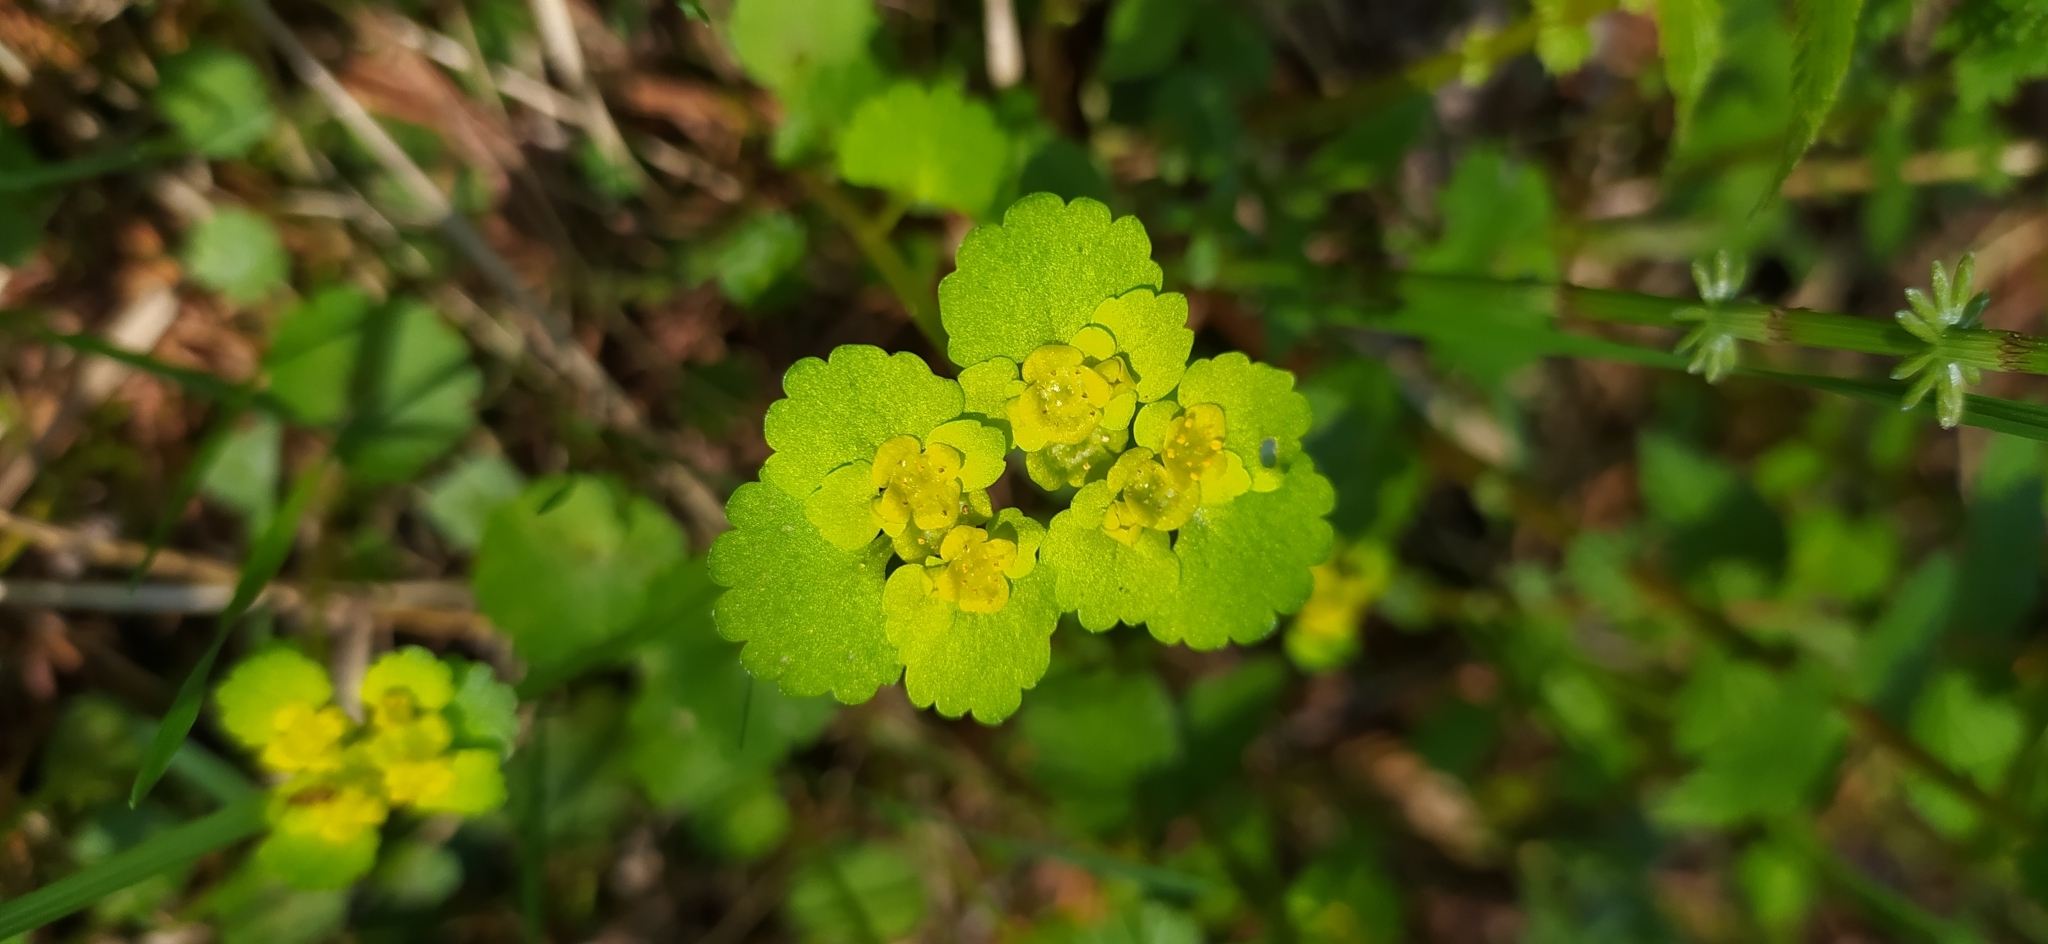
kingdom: Plantae
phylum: Tracheophyta
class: Magnoliopsida
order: Saxifragales
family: Saxifragaceae
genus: Chrysosplenium
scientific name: Chrysosplenium alternifolium
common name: Alternate-leaved golden-saxifrage
